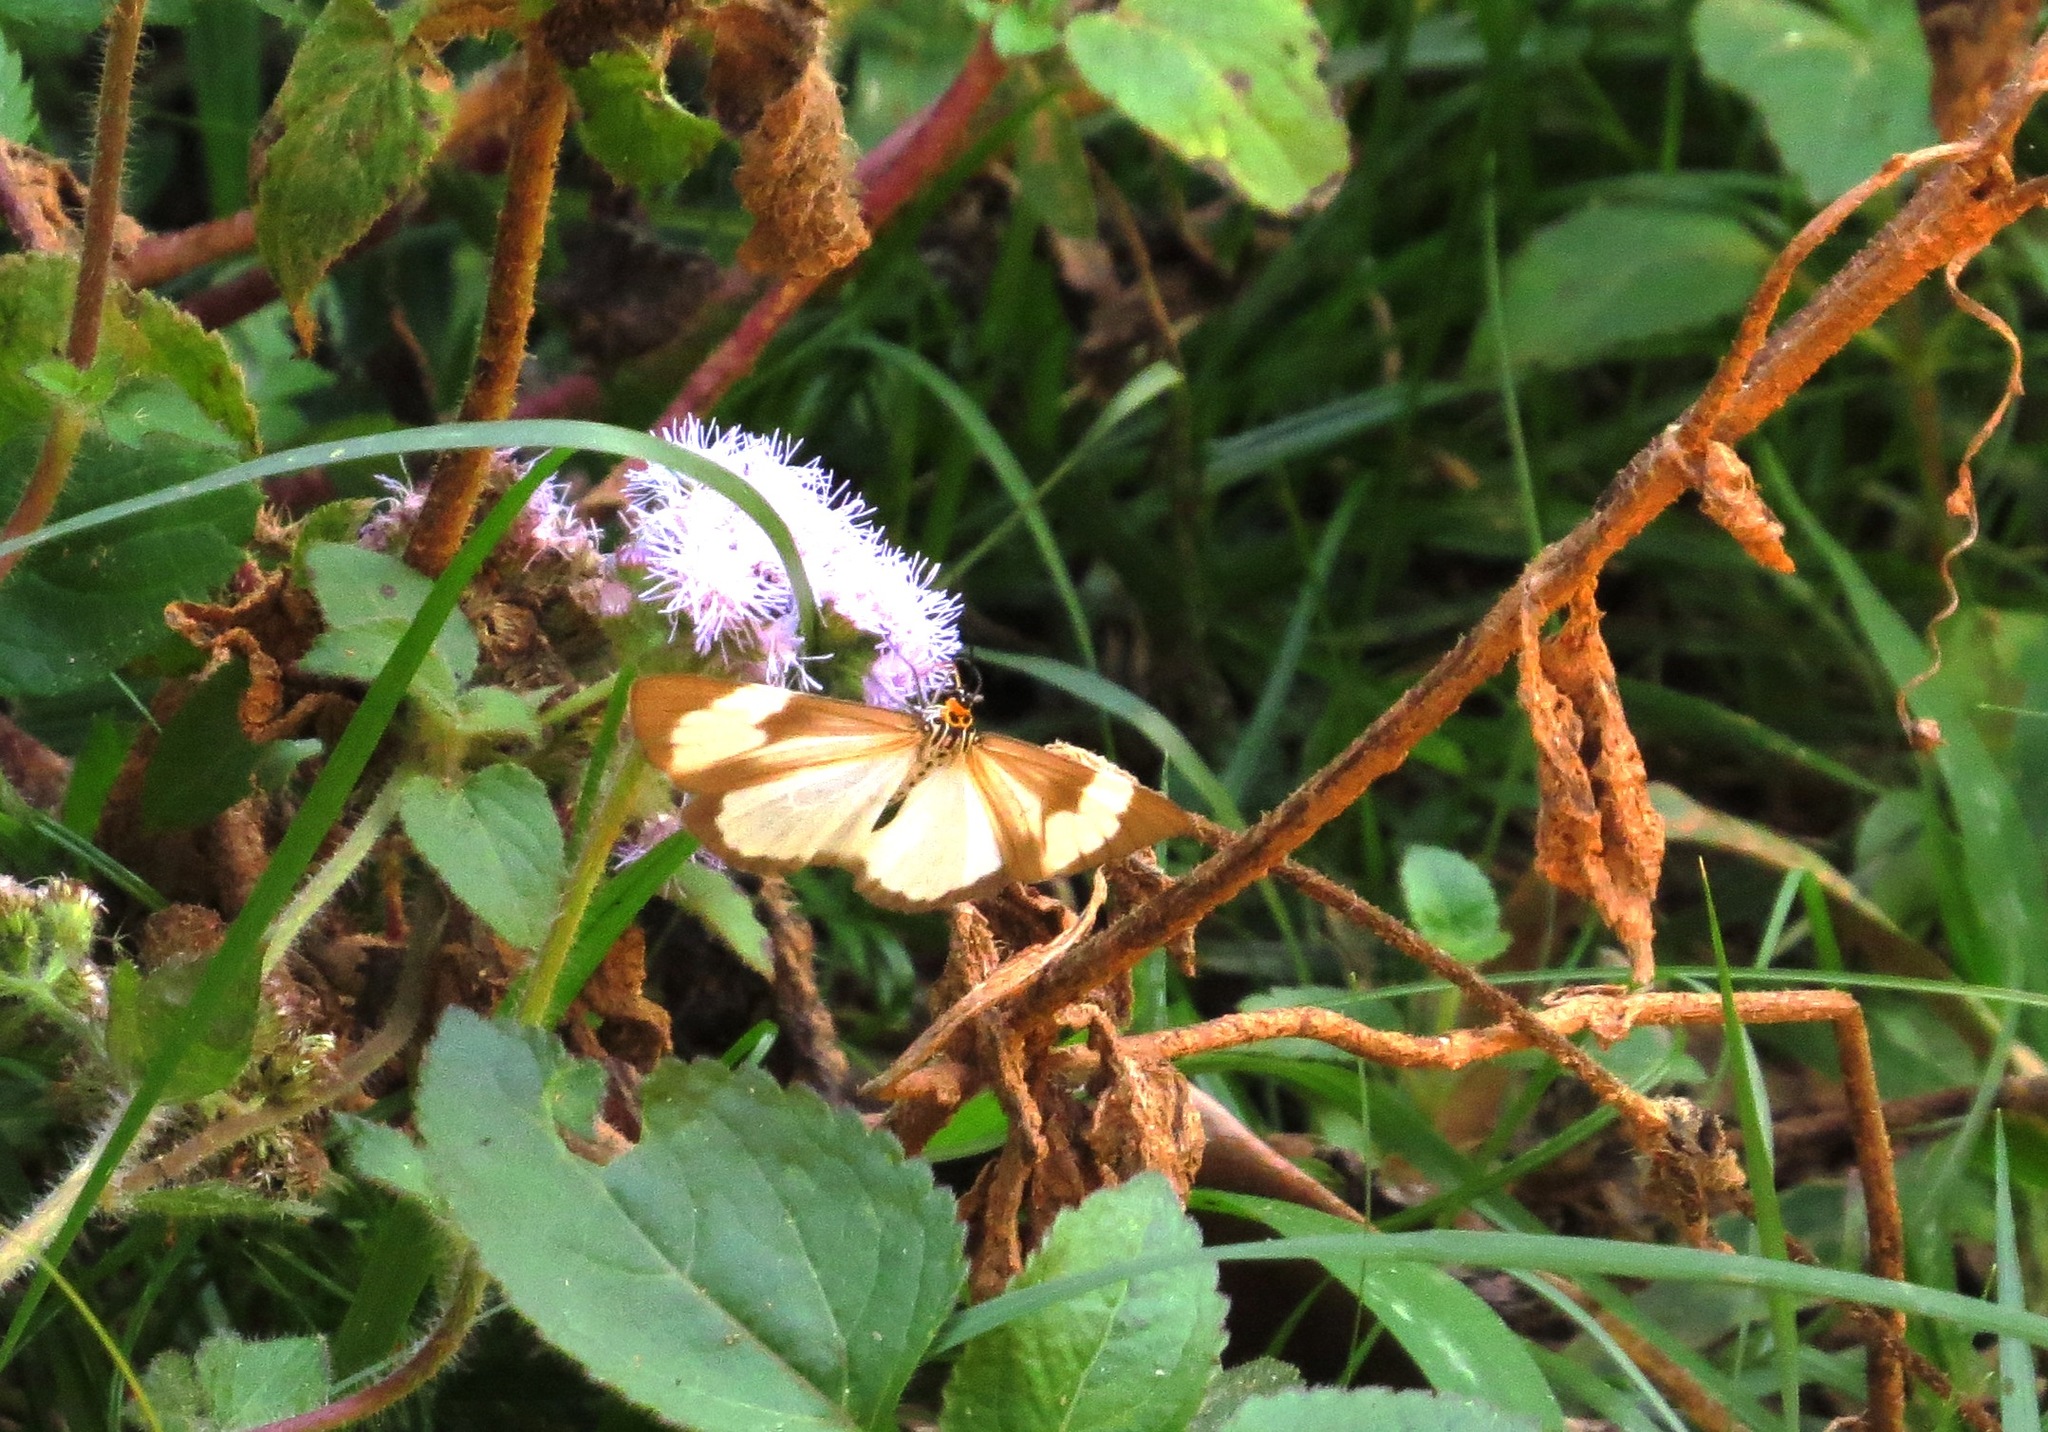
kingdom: Animalia
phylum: Arthropoda
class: Insecta
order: Lepidoptera
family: Erebidae
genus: Nyctemera
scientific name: Nyctemera
